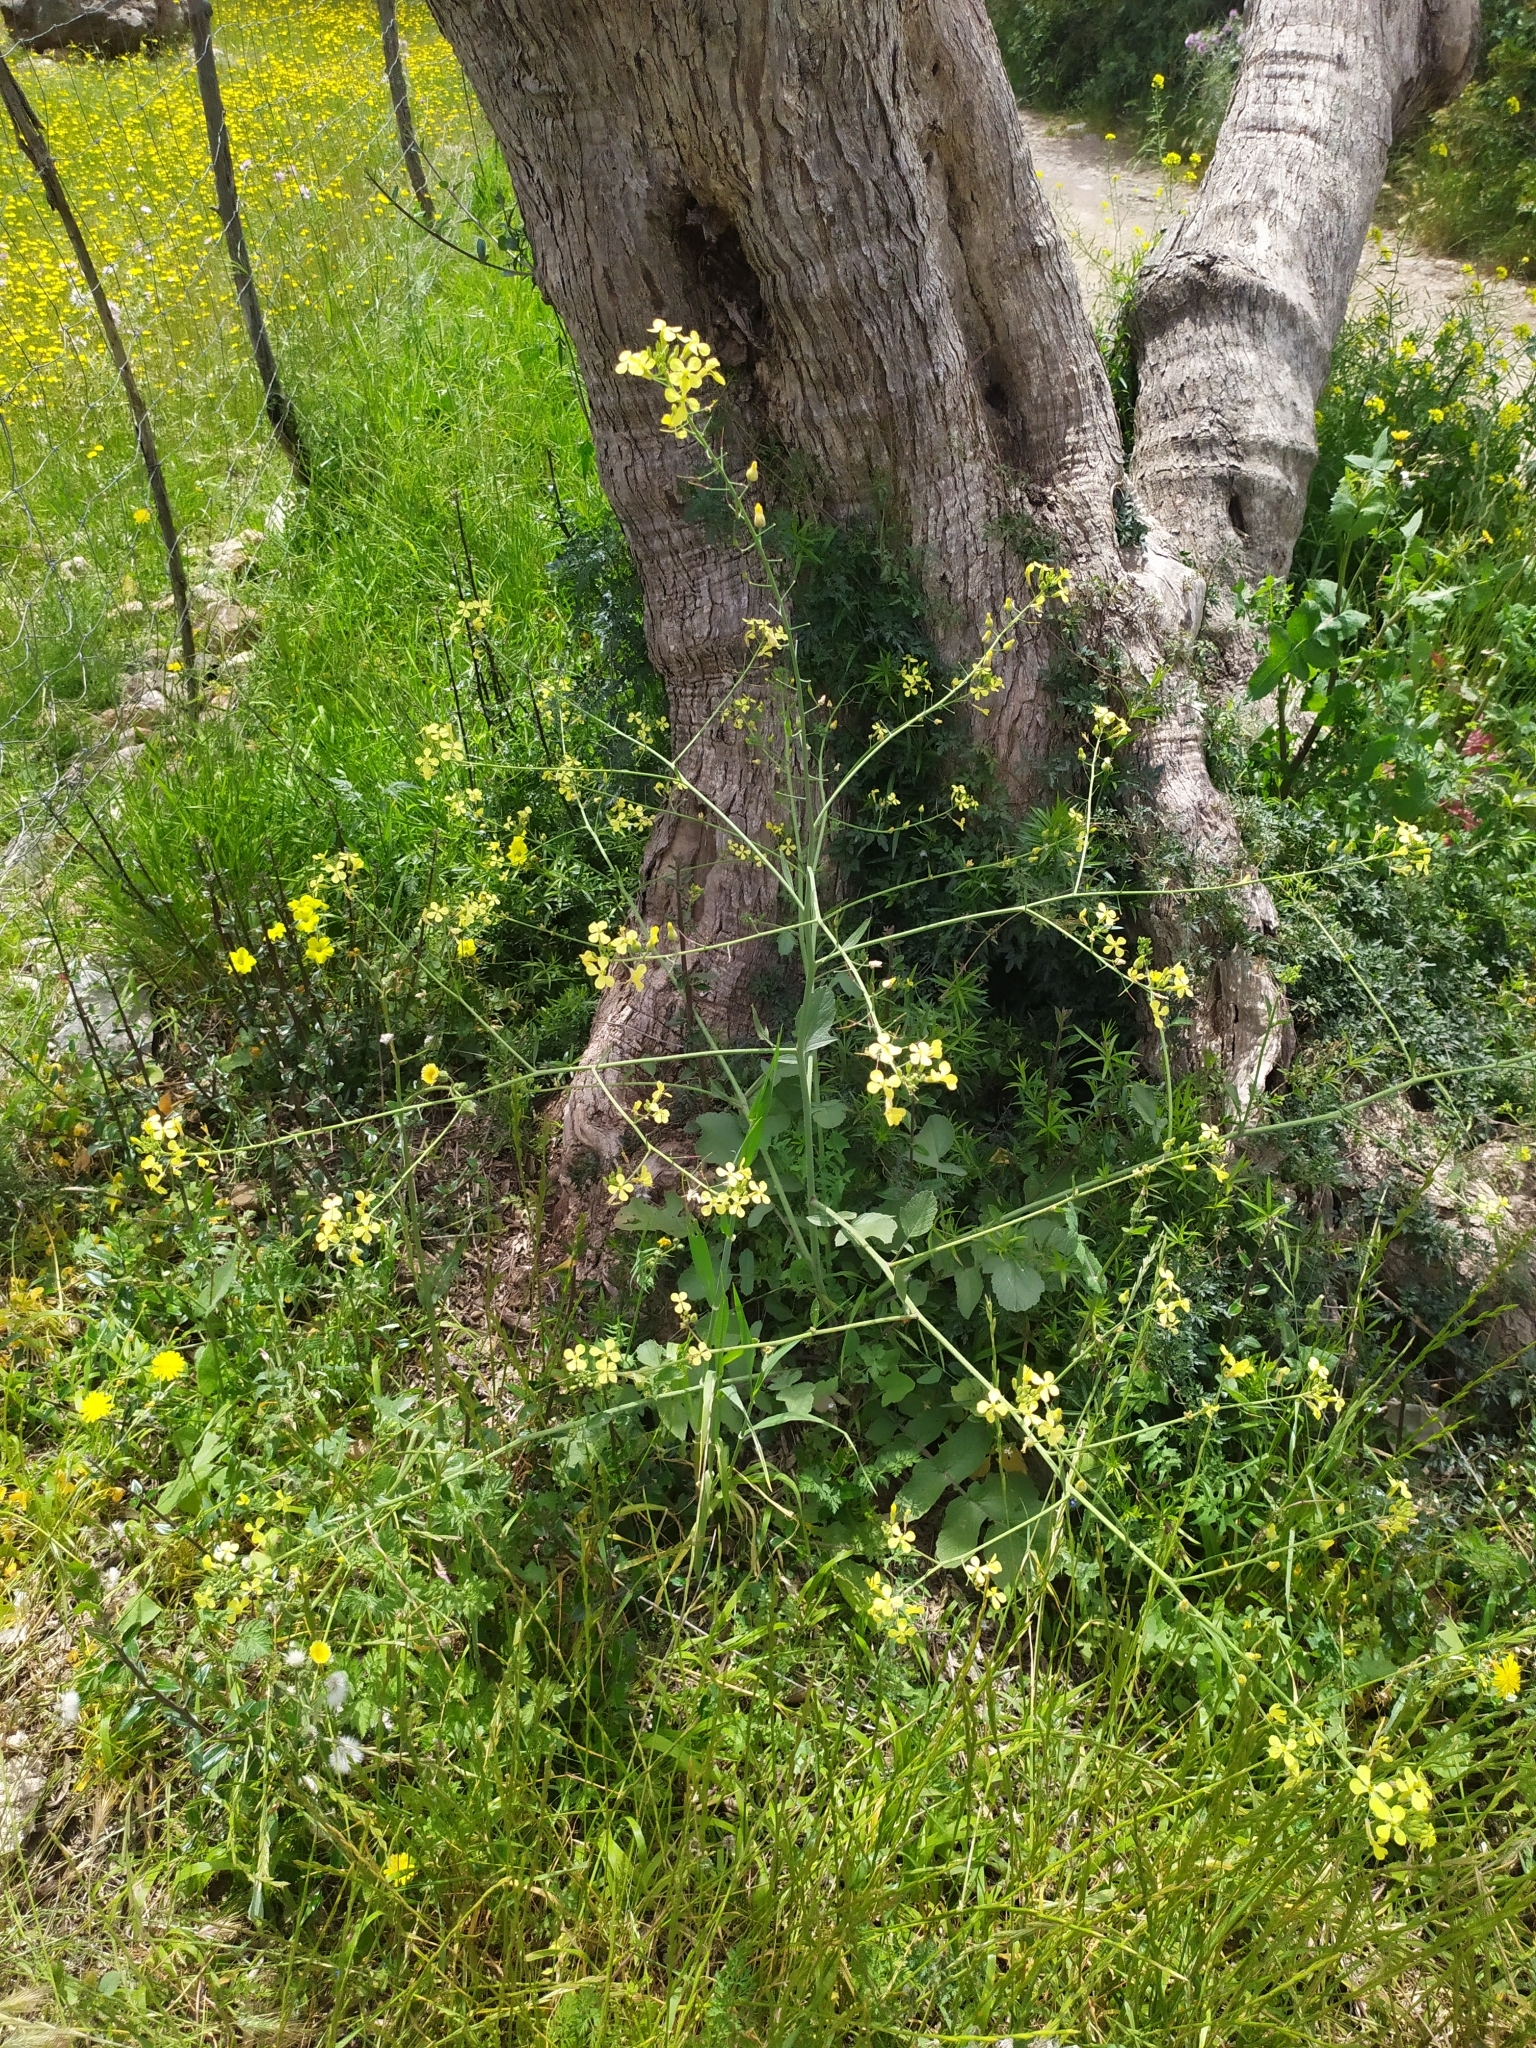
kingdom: Plantae
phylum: Tracheophyta
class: Magnoliopsida
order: Brassicales
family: Brassicaceae
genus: Raphanus
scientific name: Raphanus raphanistrum
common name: Wild radish
